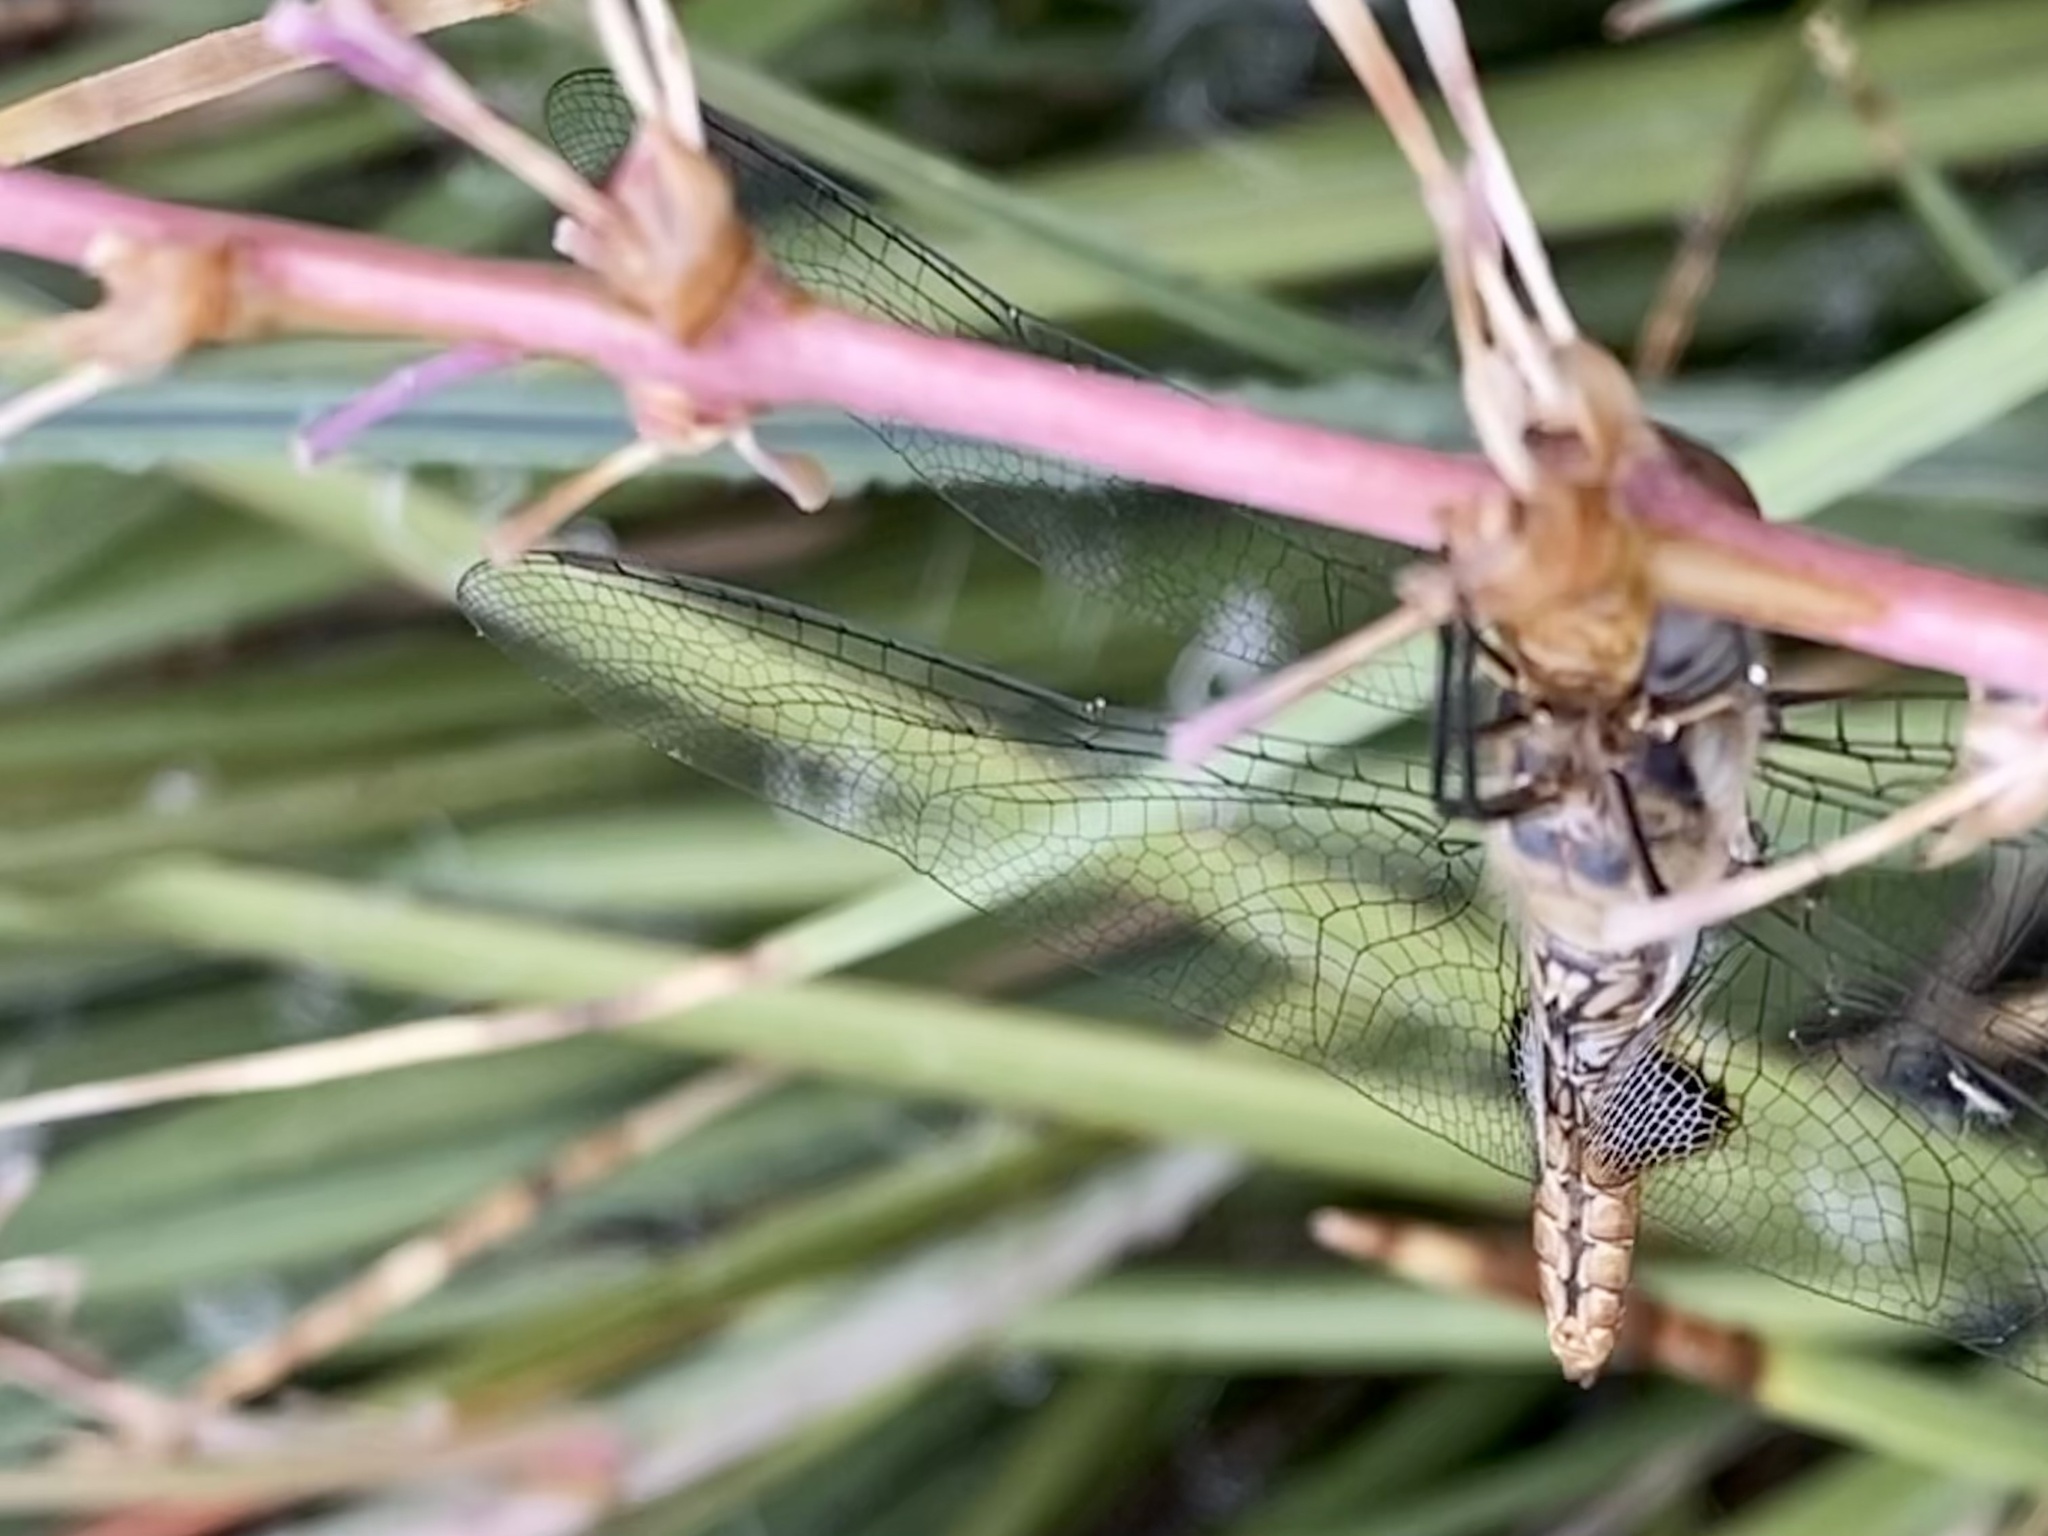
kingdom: Animalia
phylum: Arthropoda
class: Insecta
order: Odonata
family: Libellulidae
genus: Pantala
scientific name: Pantala hymenaea
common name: Spot-winged glider
